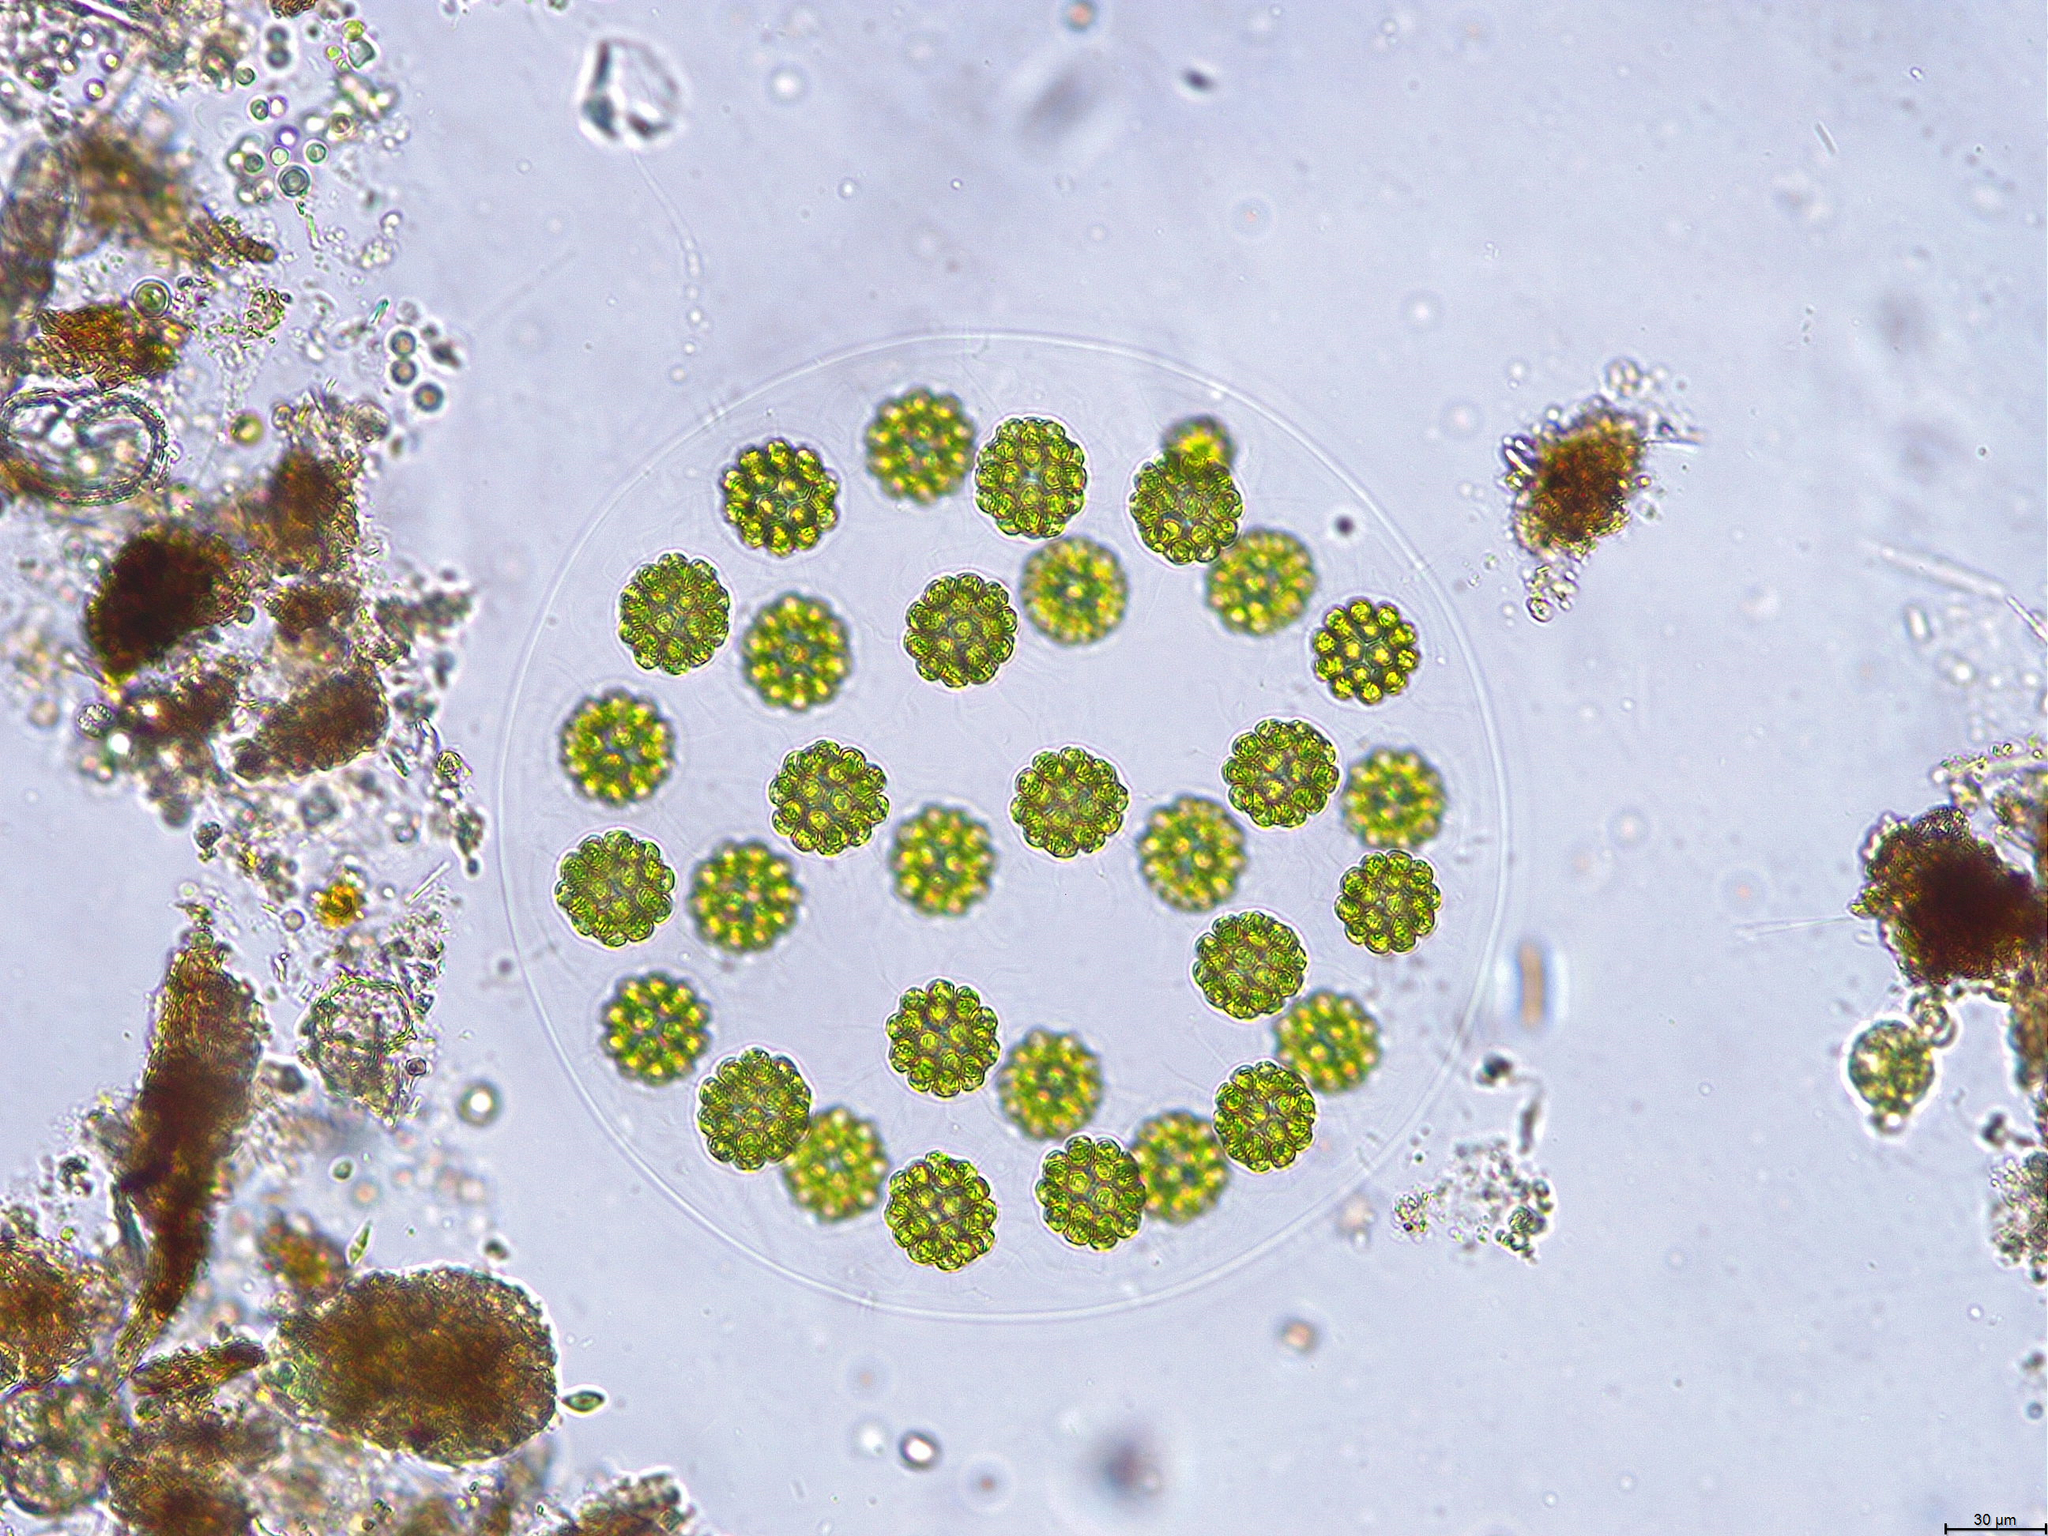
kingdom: Plantae
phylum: Chlorophyta
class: Chlorophyceae
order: Volvocales
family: Volvocaceae
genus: Eudorina
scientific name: Eudorina elegans
